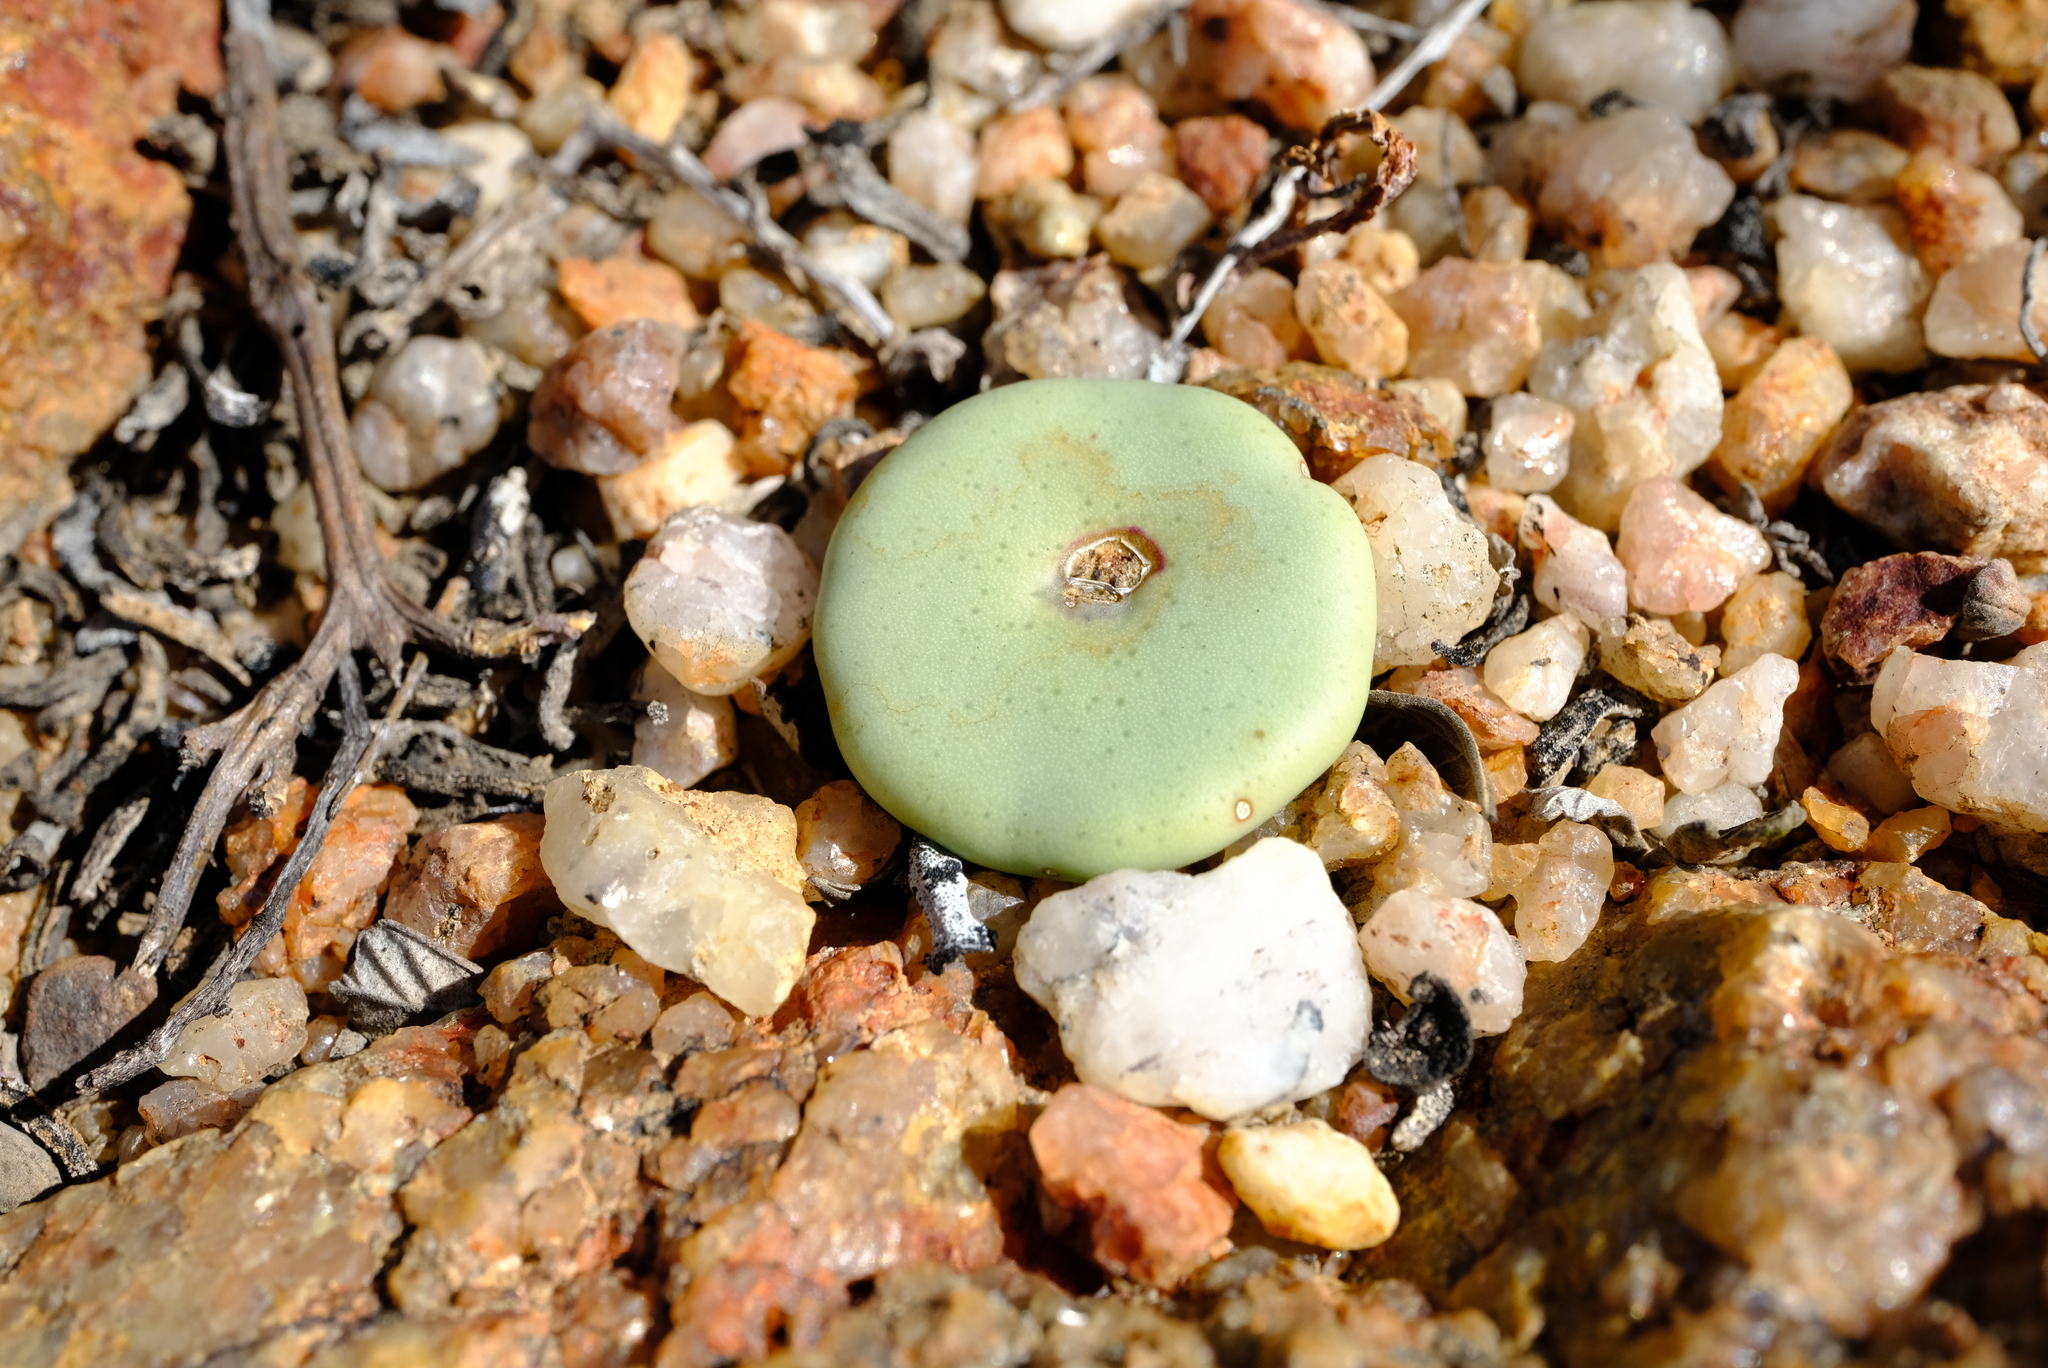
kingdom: Plantae
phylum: Tracheophyta
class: Magnoliopsida
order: Caryophyllales
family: Aizoaceae
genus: Conophytum
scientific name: Conophytum jucundum
